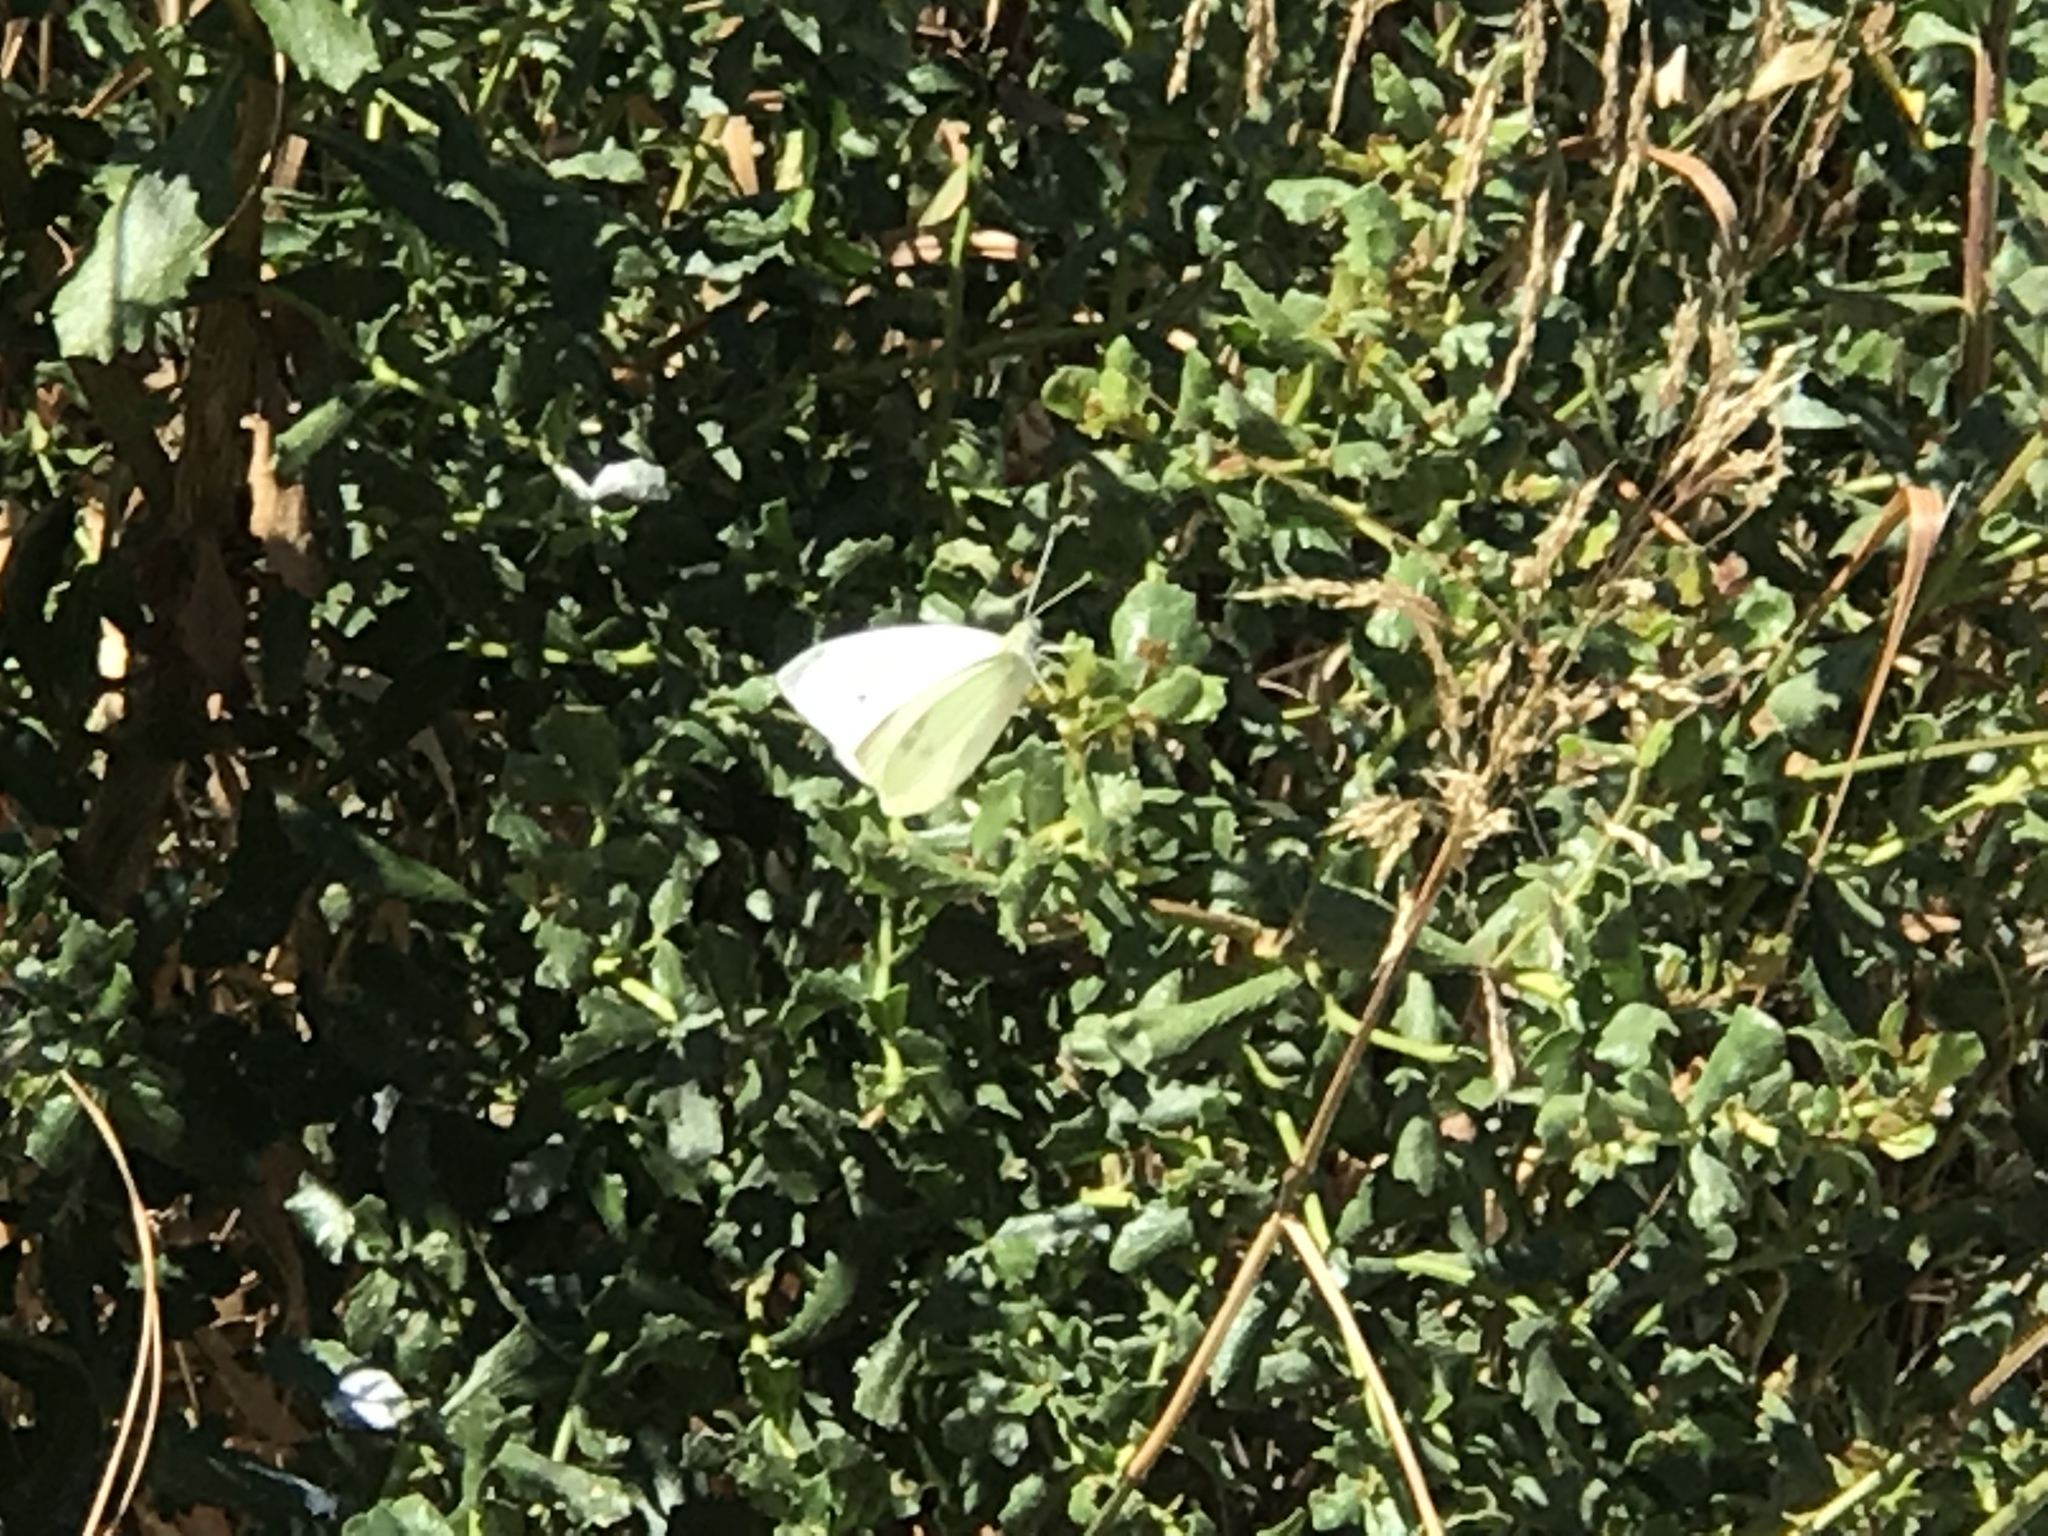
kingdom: Animalia
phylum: Arthropoda
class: Insecta
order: Lepidoptera
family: Pieridae
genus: Pieris
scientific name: Pieris rapae
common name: Small white
